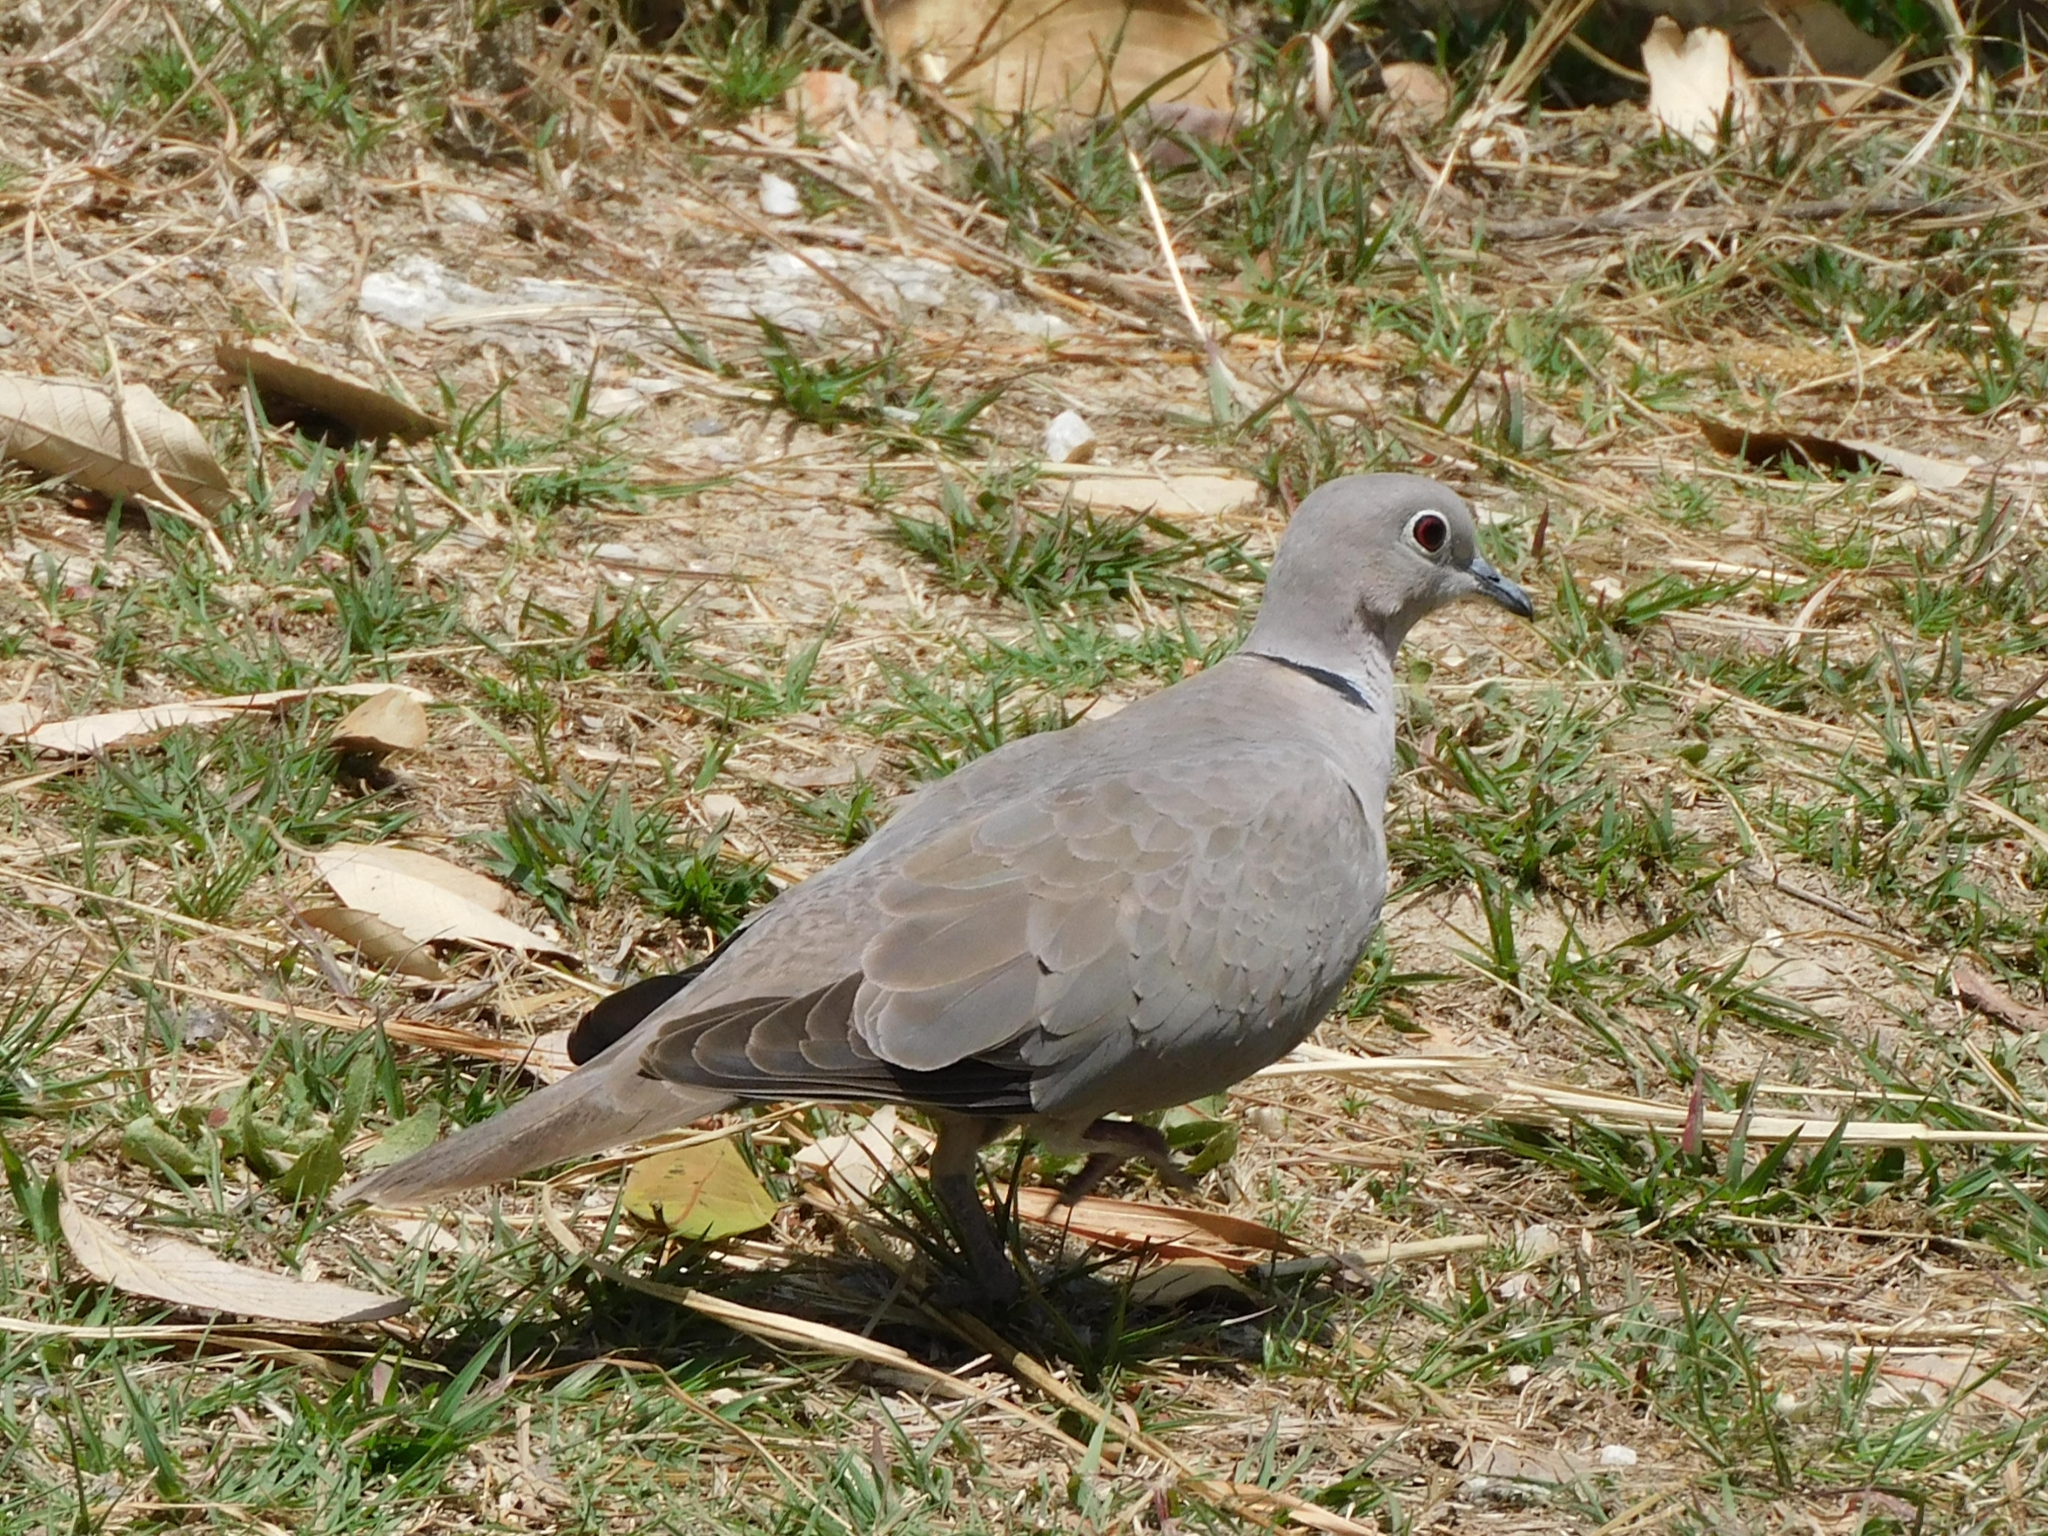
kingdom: Animalia
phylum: Chordata
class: Aves
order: Columbiformes
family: Columbidae
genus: Streptopelia
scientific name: Streptopelia decaocto
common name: Eurasian collared dove
